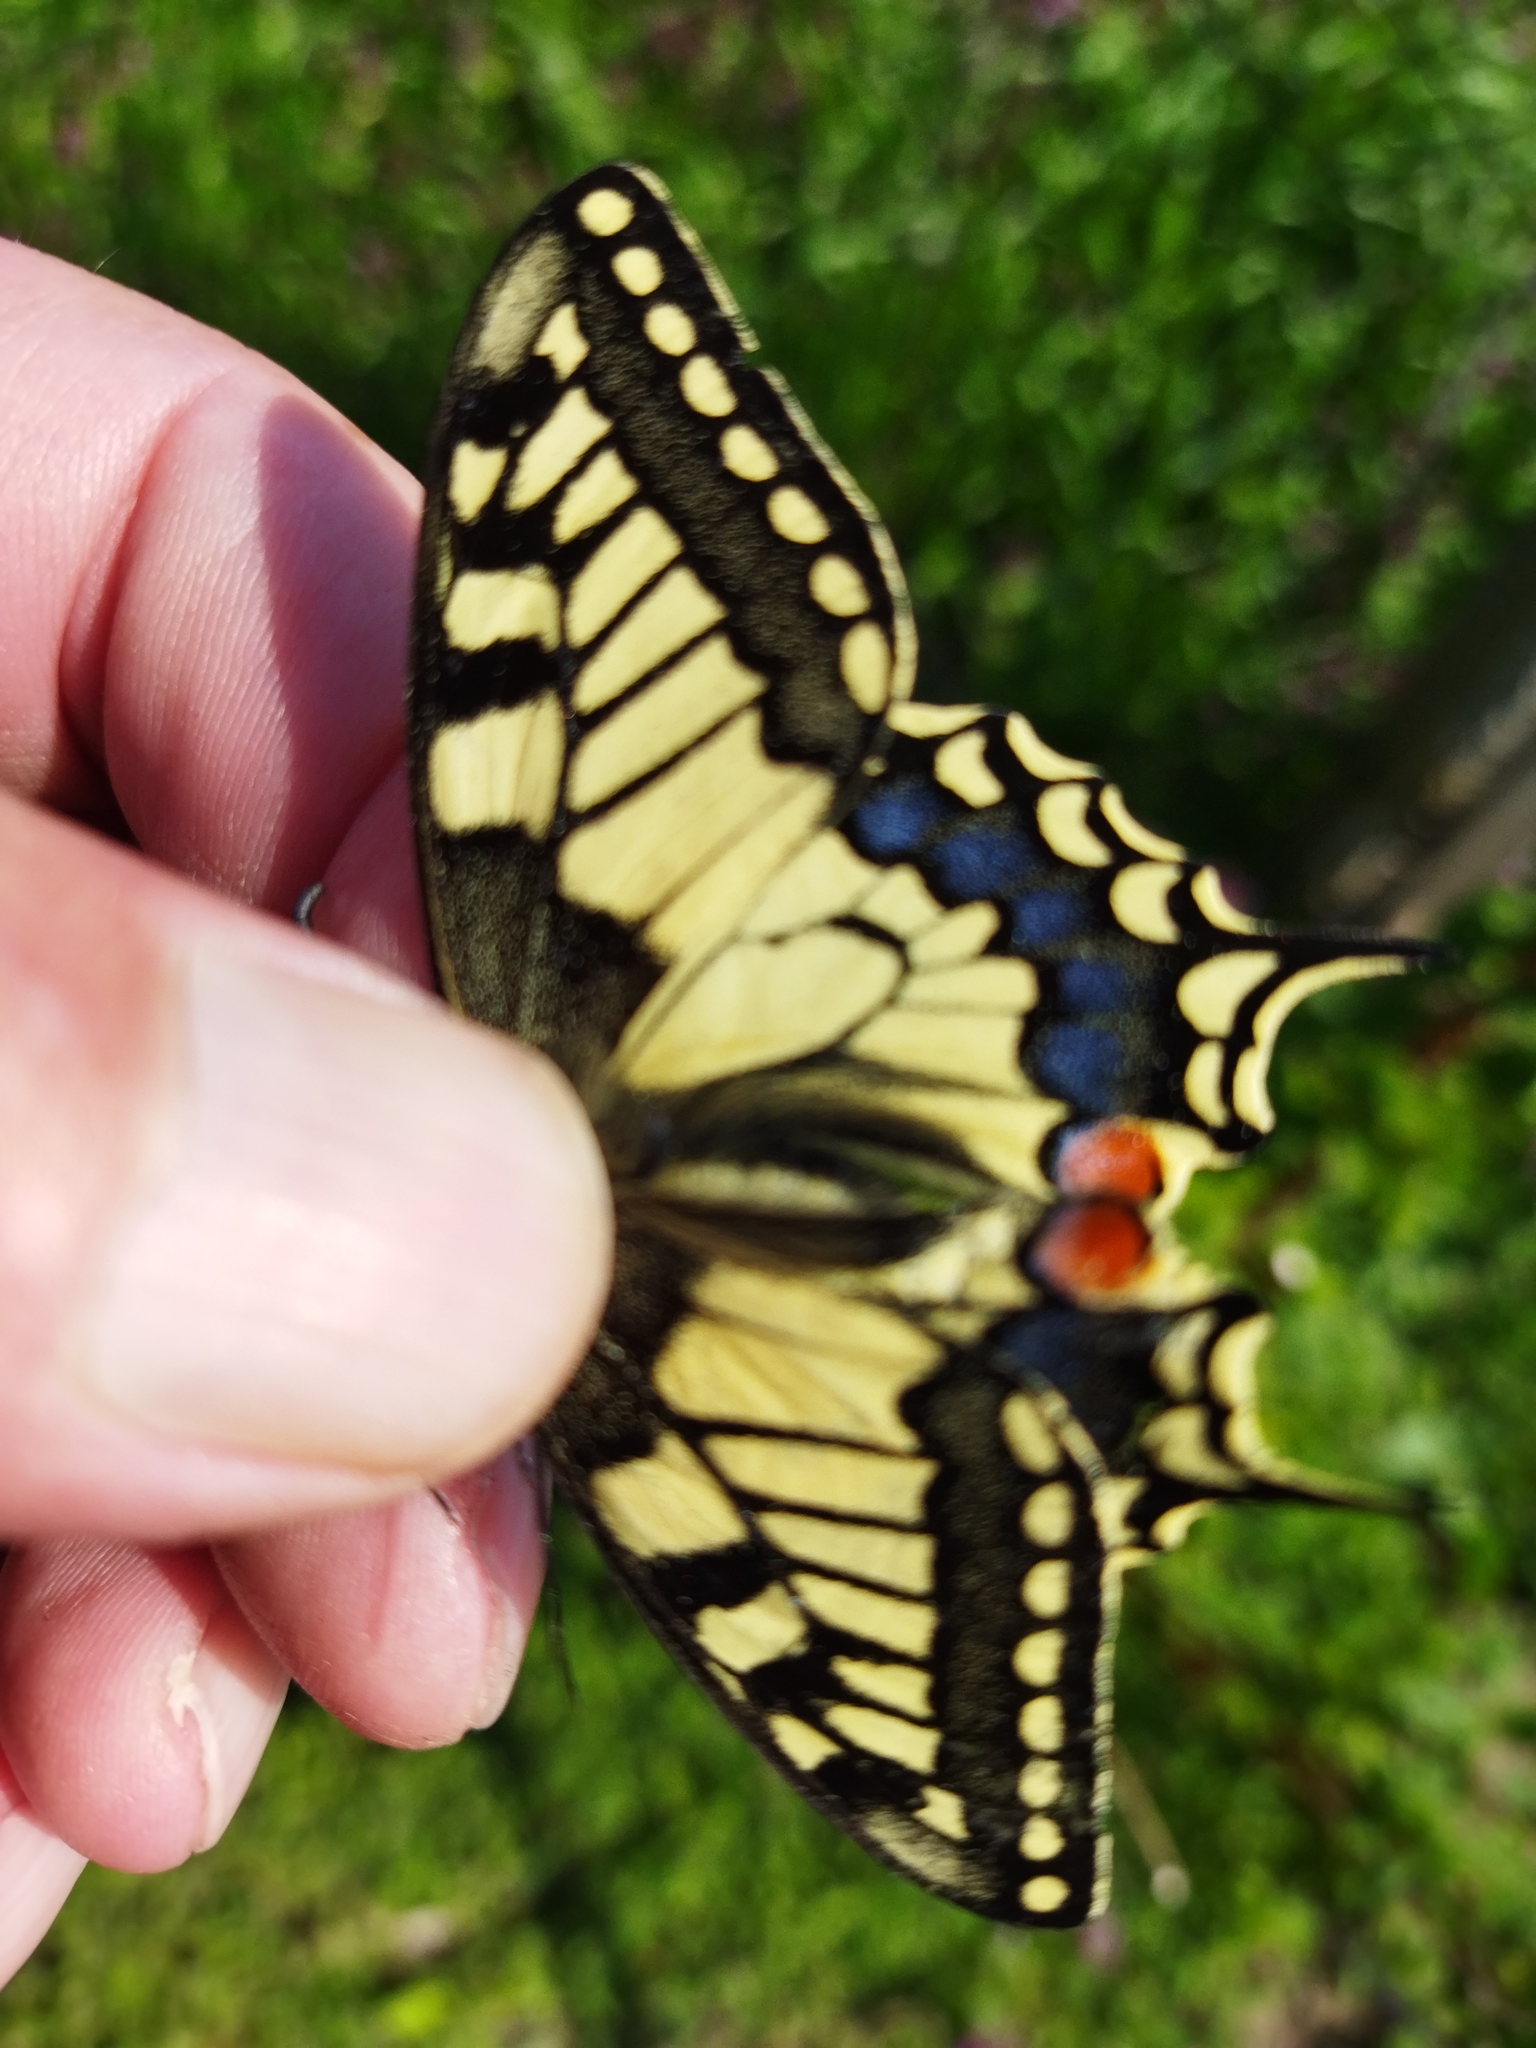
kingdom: Animalia
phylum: Arthropoda
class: Insecta
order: Lepidoptera
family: Papilionidae
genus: Papilio
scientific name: Papilio machaon
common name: Swallowtail
